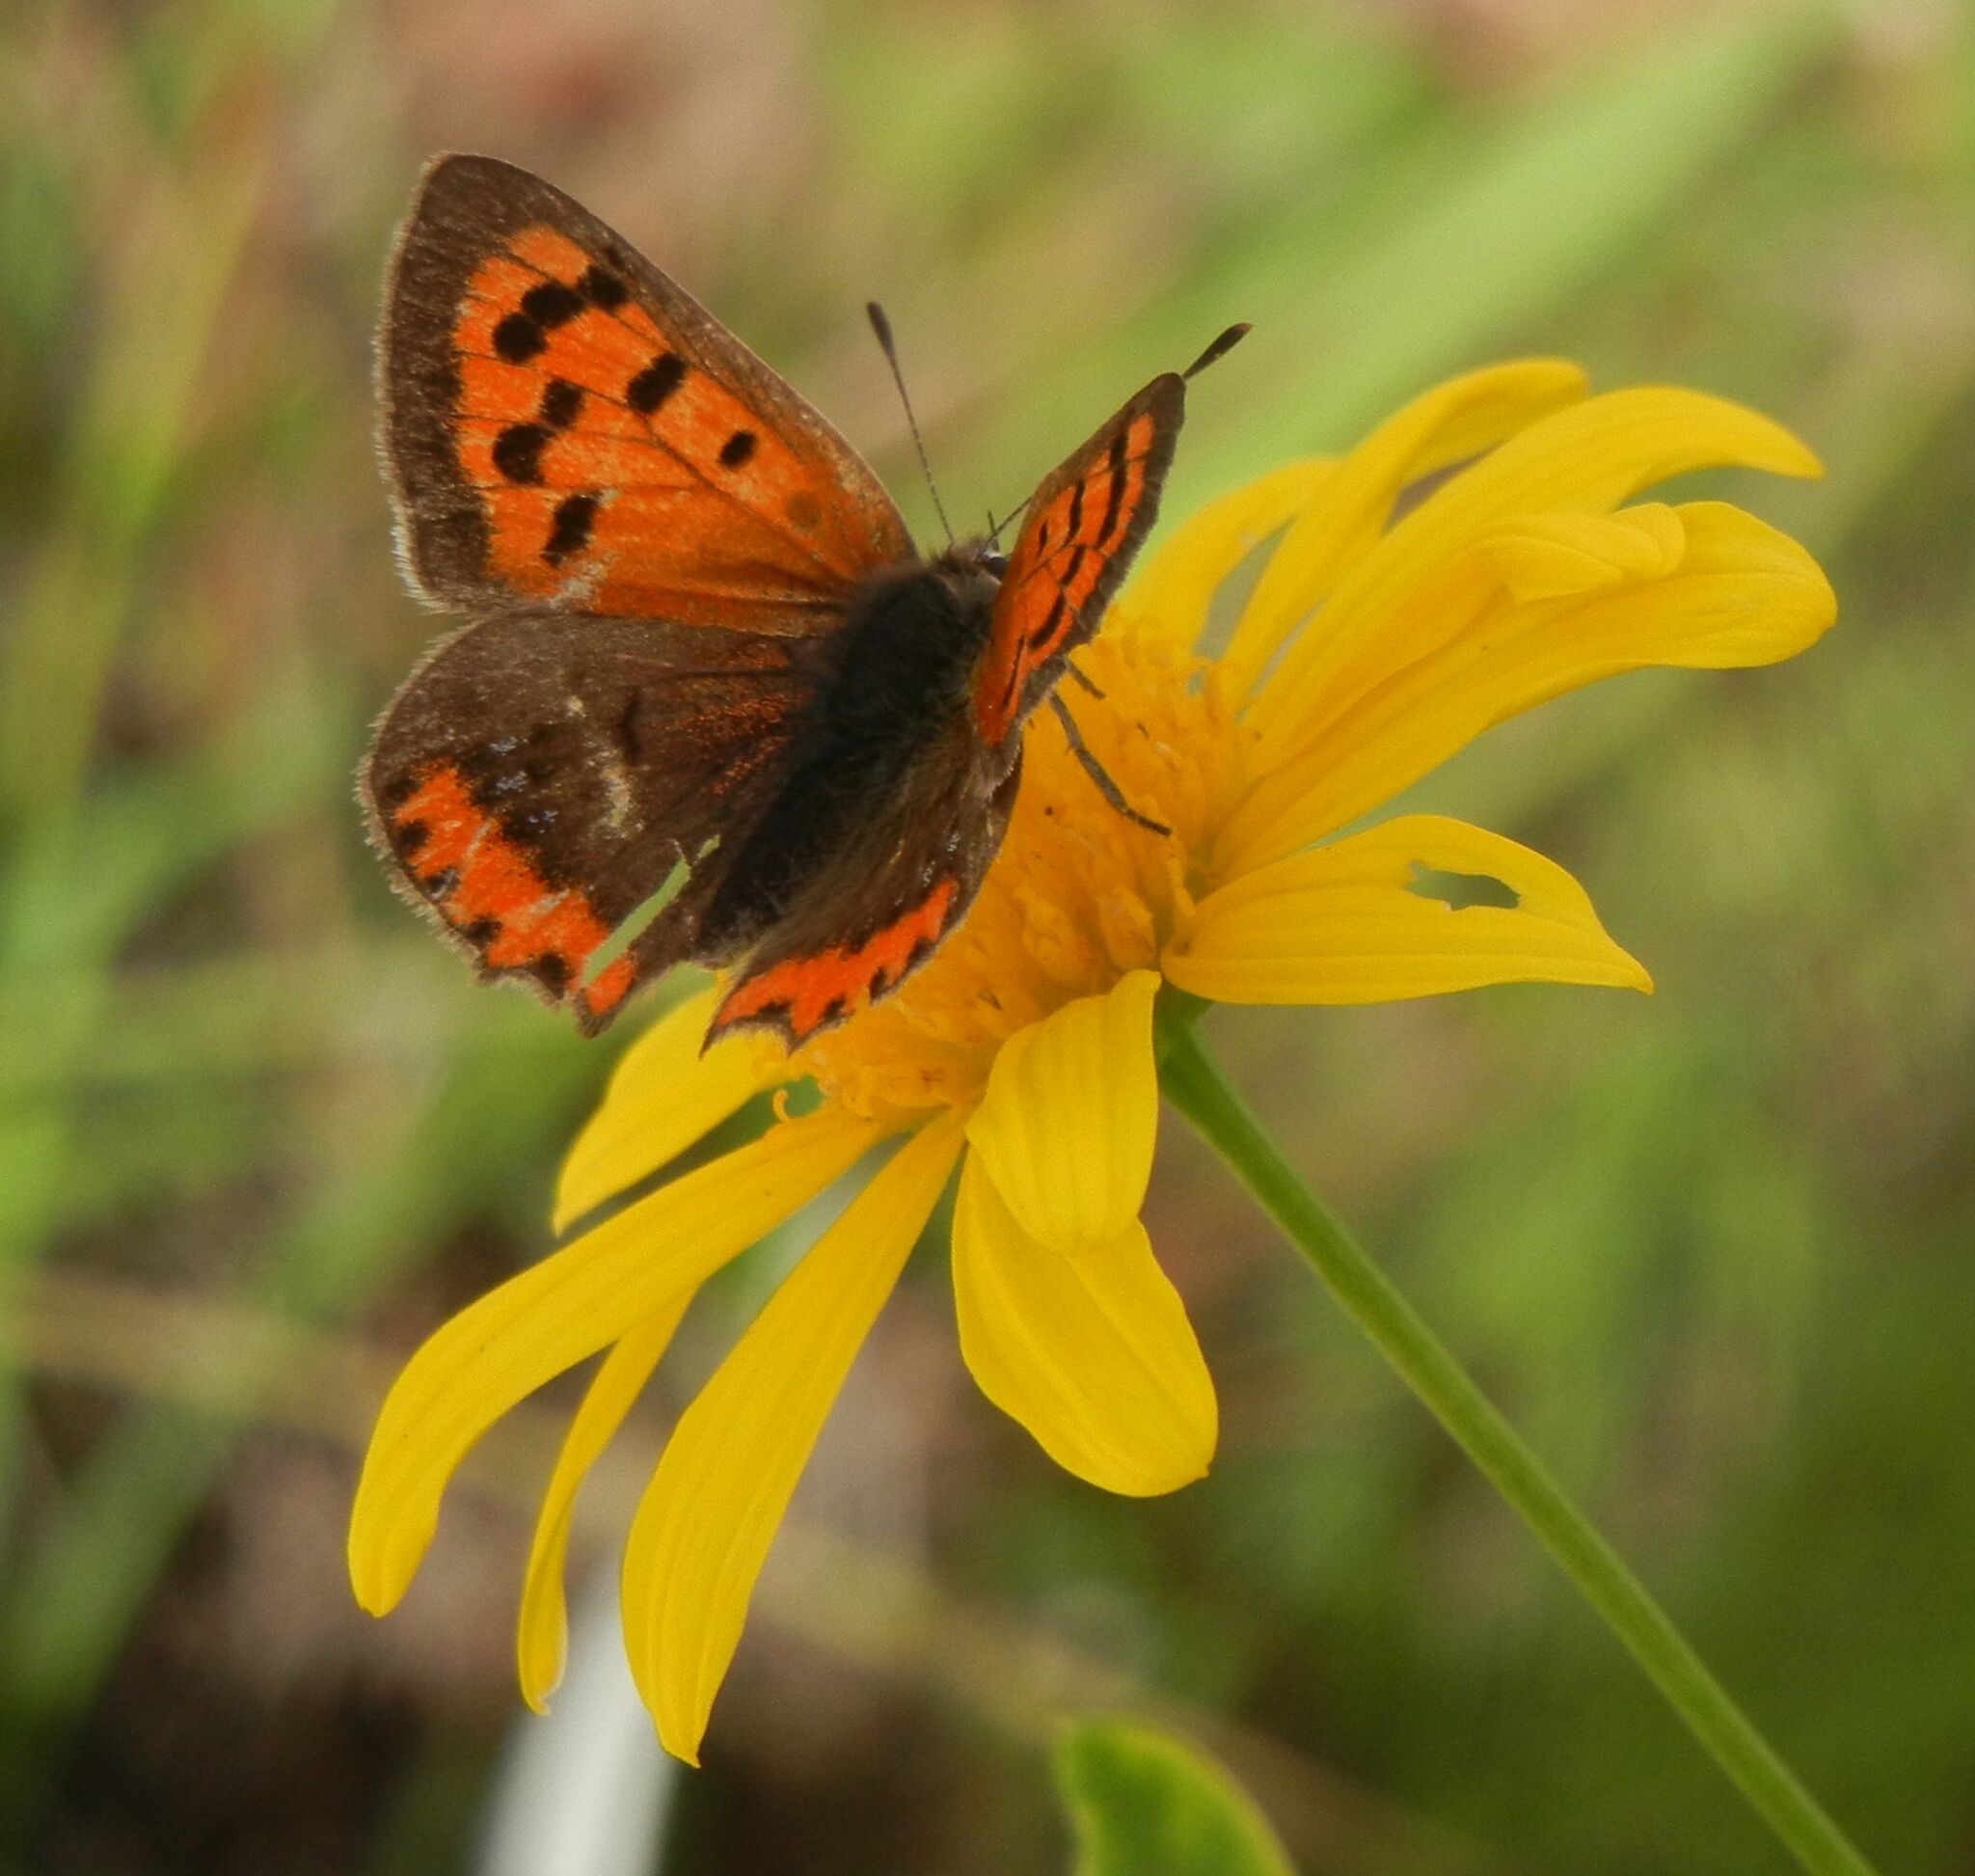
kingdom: Animalia
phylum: Arthropoda
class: Insecta
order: Lepidoptera
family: Lycaenidae
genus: Lycaena
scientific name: Lycaena phlaeas
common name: Small copper
